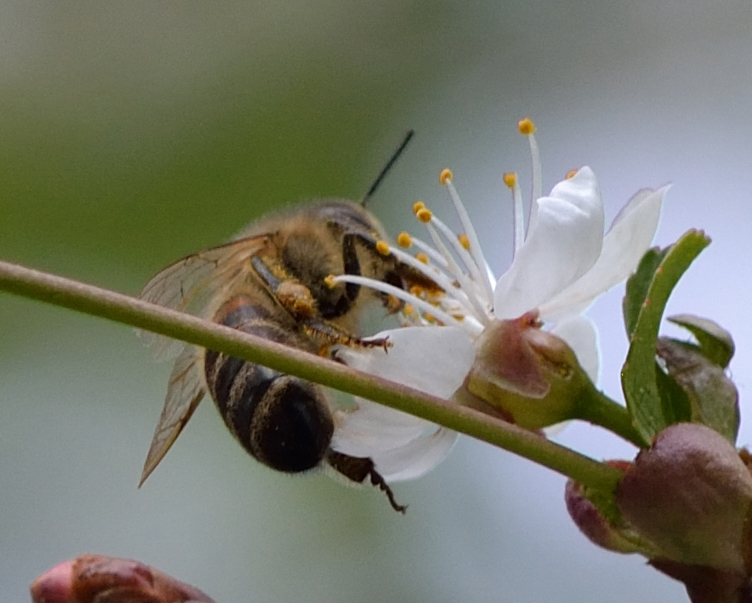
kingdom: Animalia
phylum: Arthropoda
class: Insecta
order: Hymenoptera
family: Apidae
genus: Apis
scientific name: Apis mellifera
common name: Honey bee
